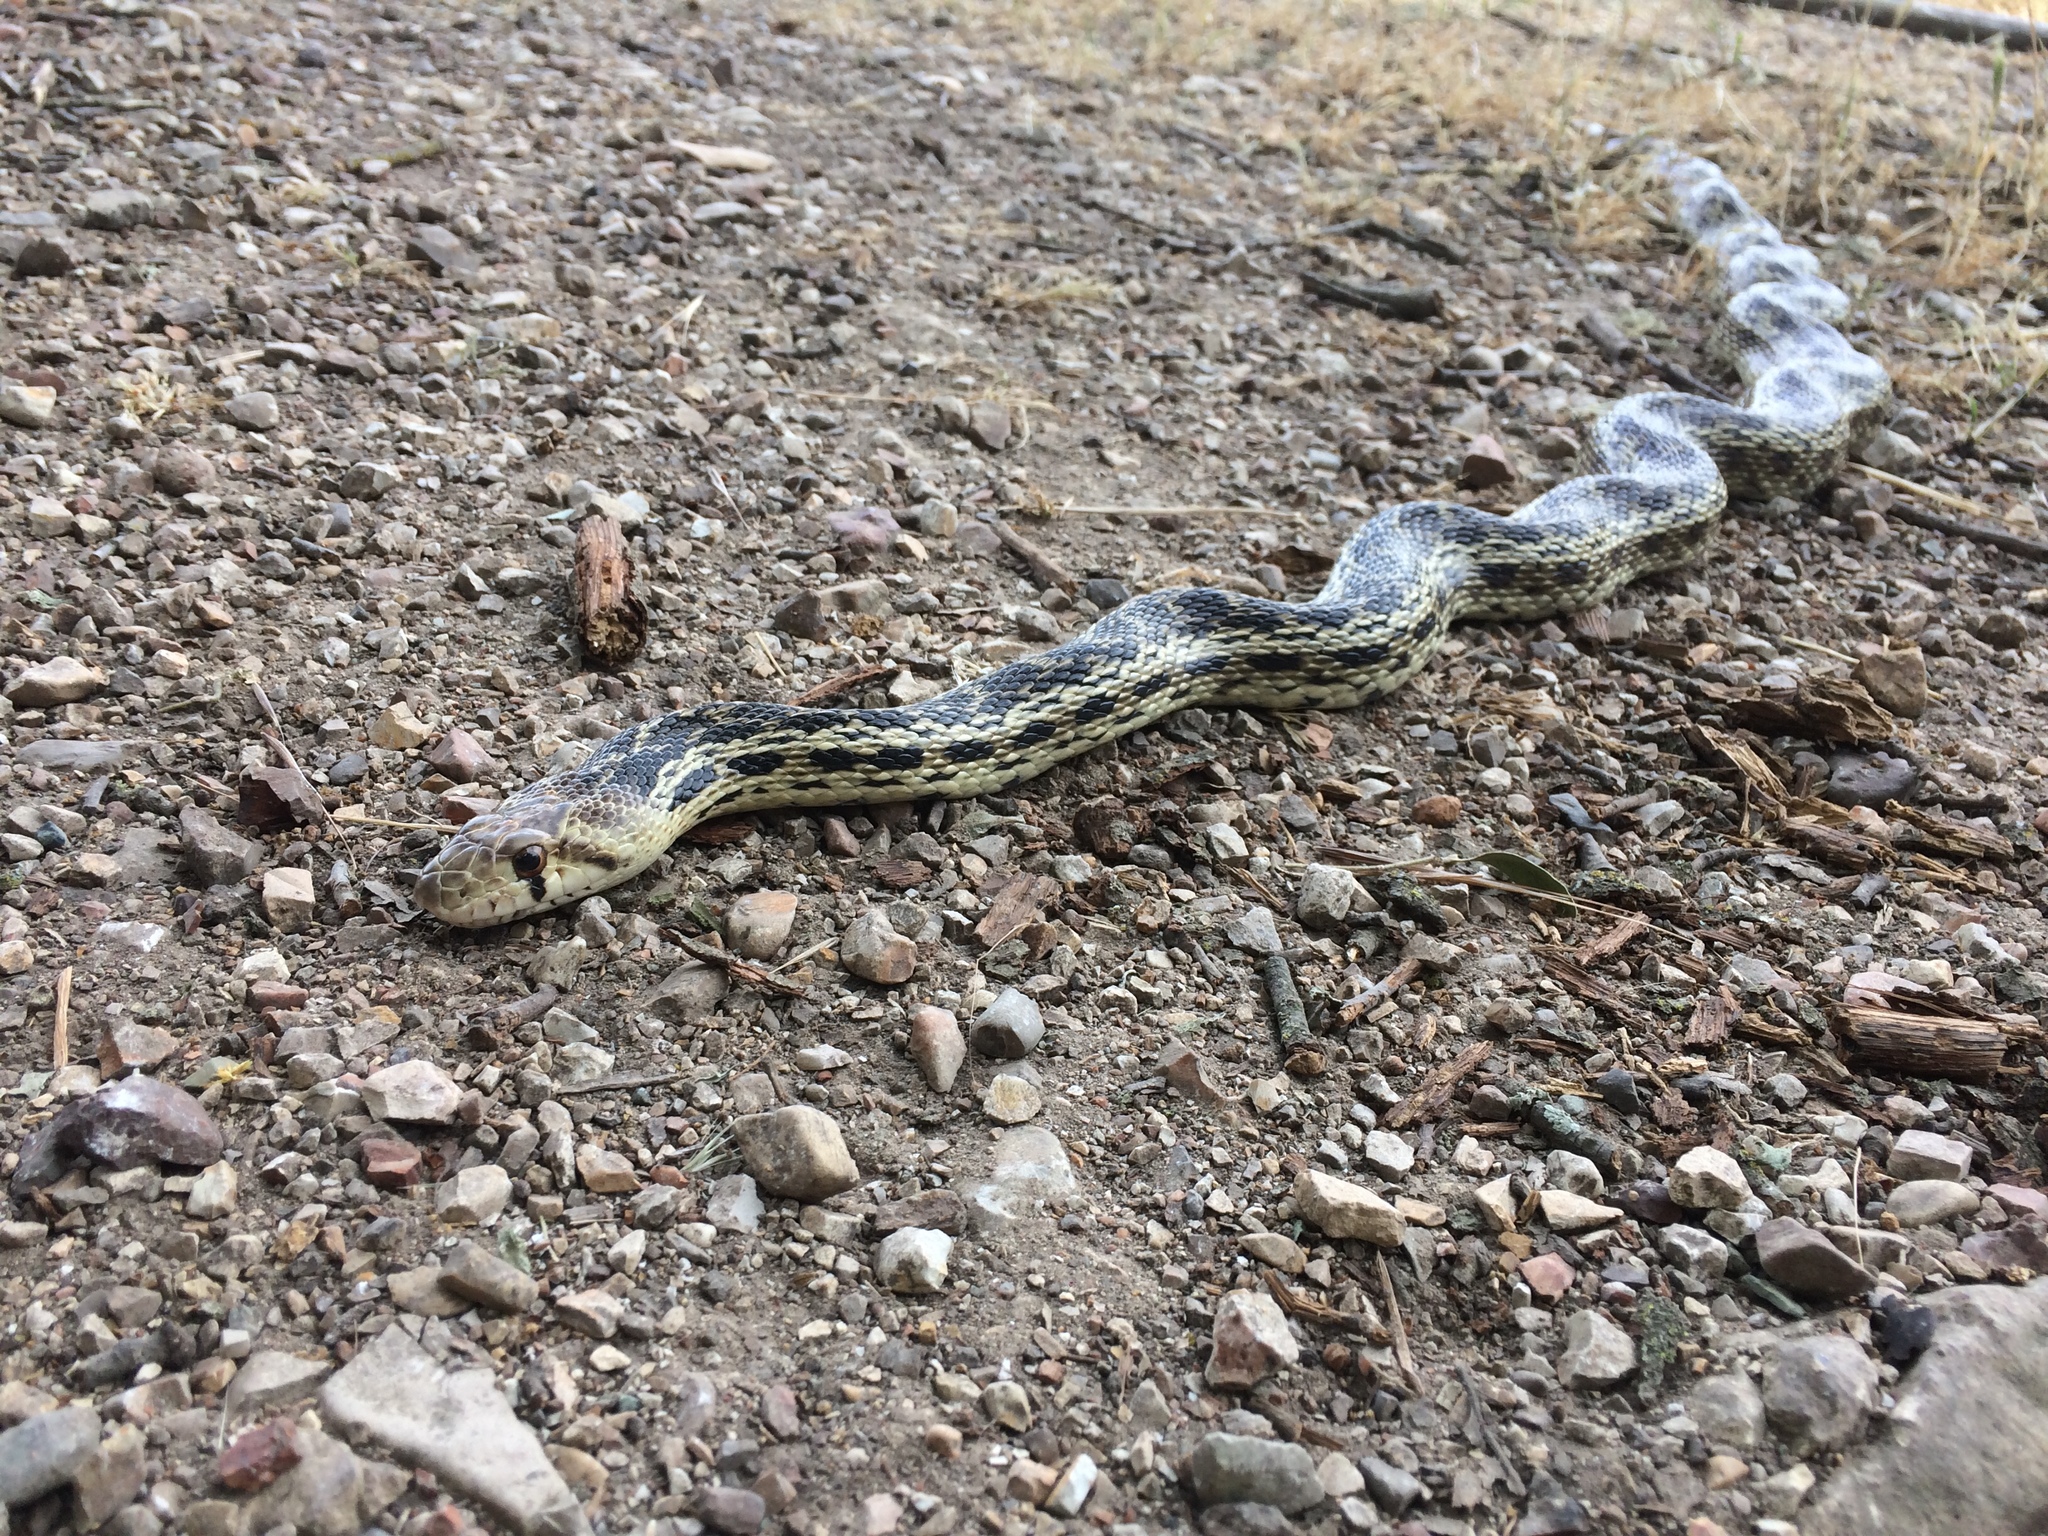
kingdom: Animalia
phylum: Chordata
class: Squamata
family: Colubridae
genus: Pituophis
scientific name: Pituophis catenifer
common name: Gopher snake
